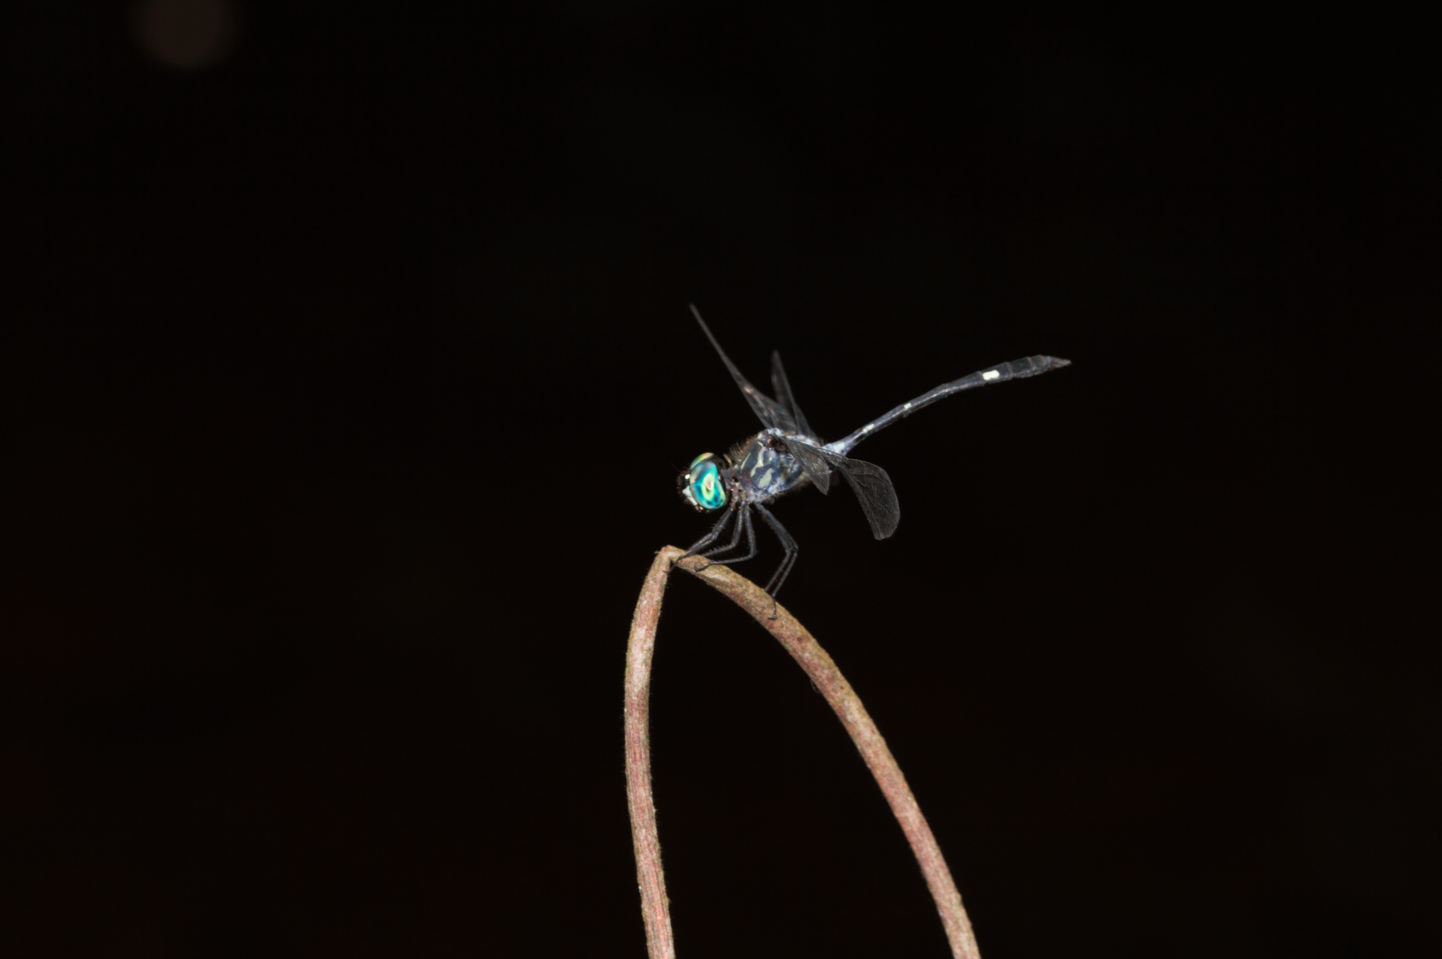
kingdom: Animalia
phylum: Arthropoda
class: Insecta
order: Odonata
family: Libellulidae
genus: Micrathyria
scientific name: Micrathyria catenata
